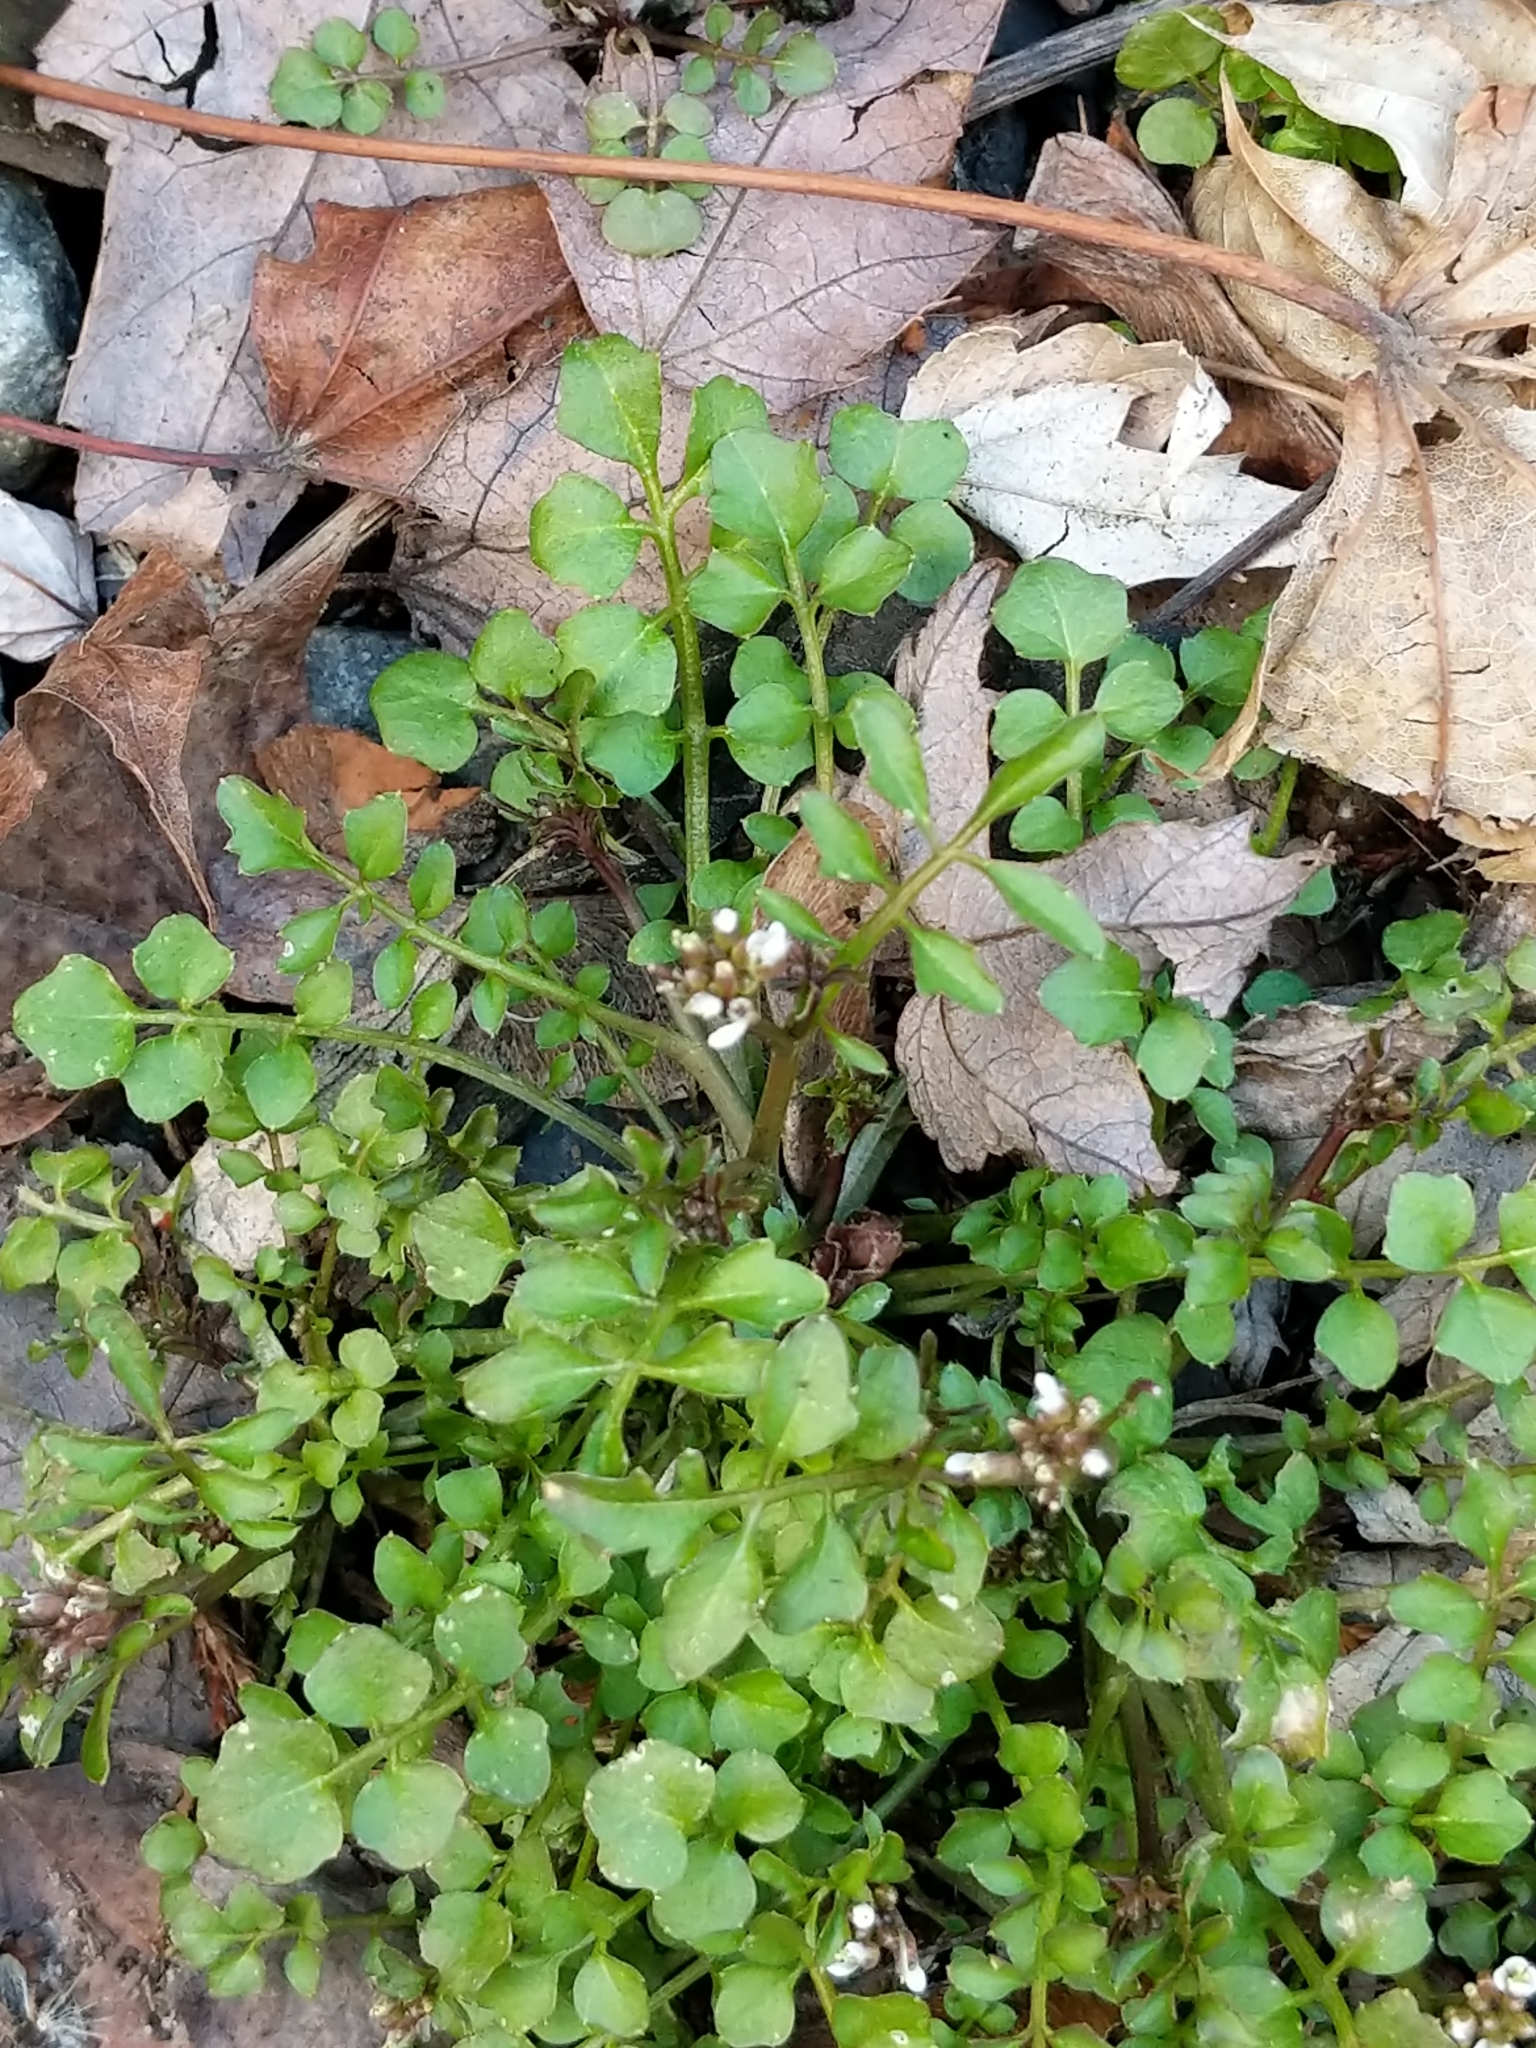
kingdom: Plantae
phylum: Tracheophyta
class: Magnoliopsida
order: Brassicales
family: Brassicaceae
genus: Cardamine
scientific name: Cardamine hirsuta
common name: Hairy bittercress
